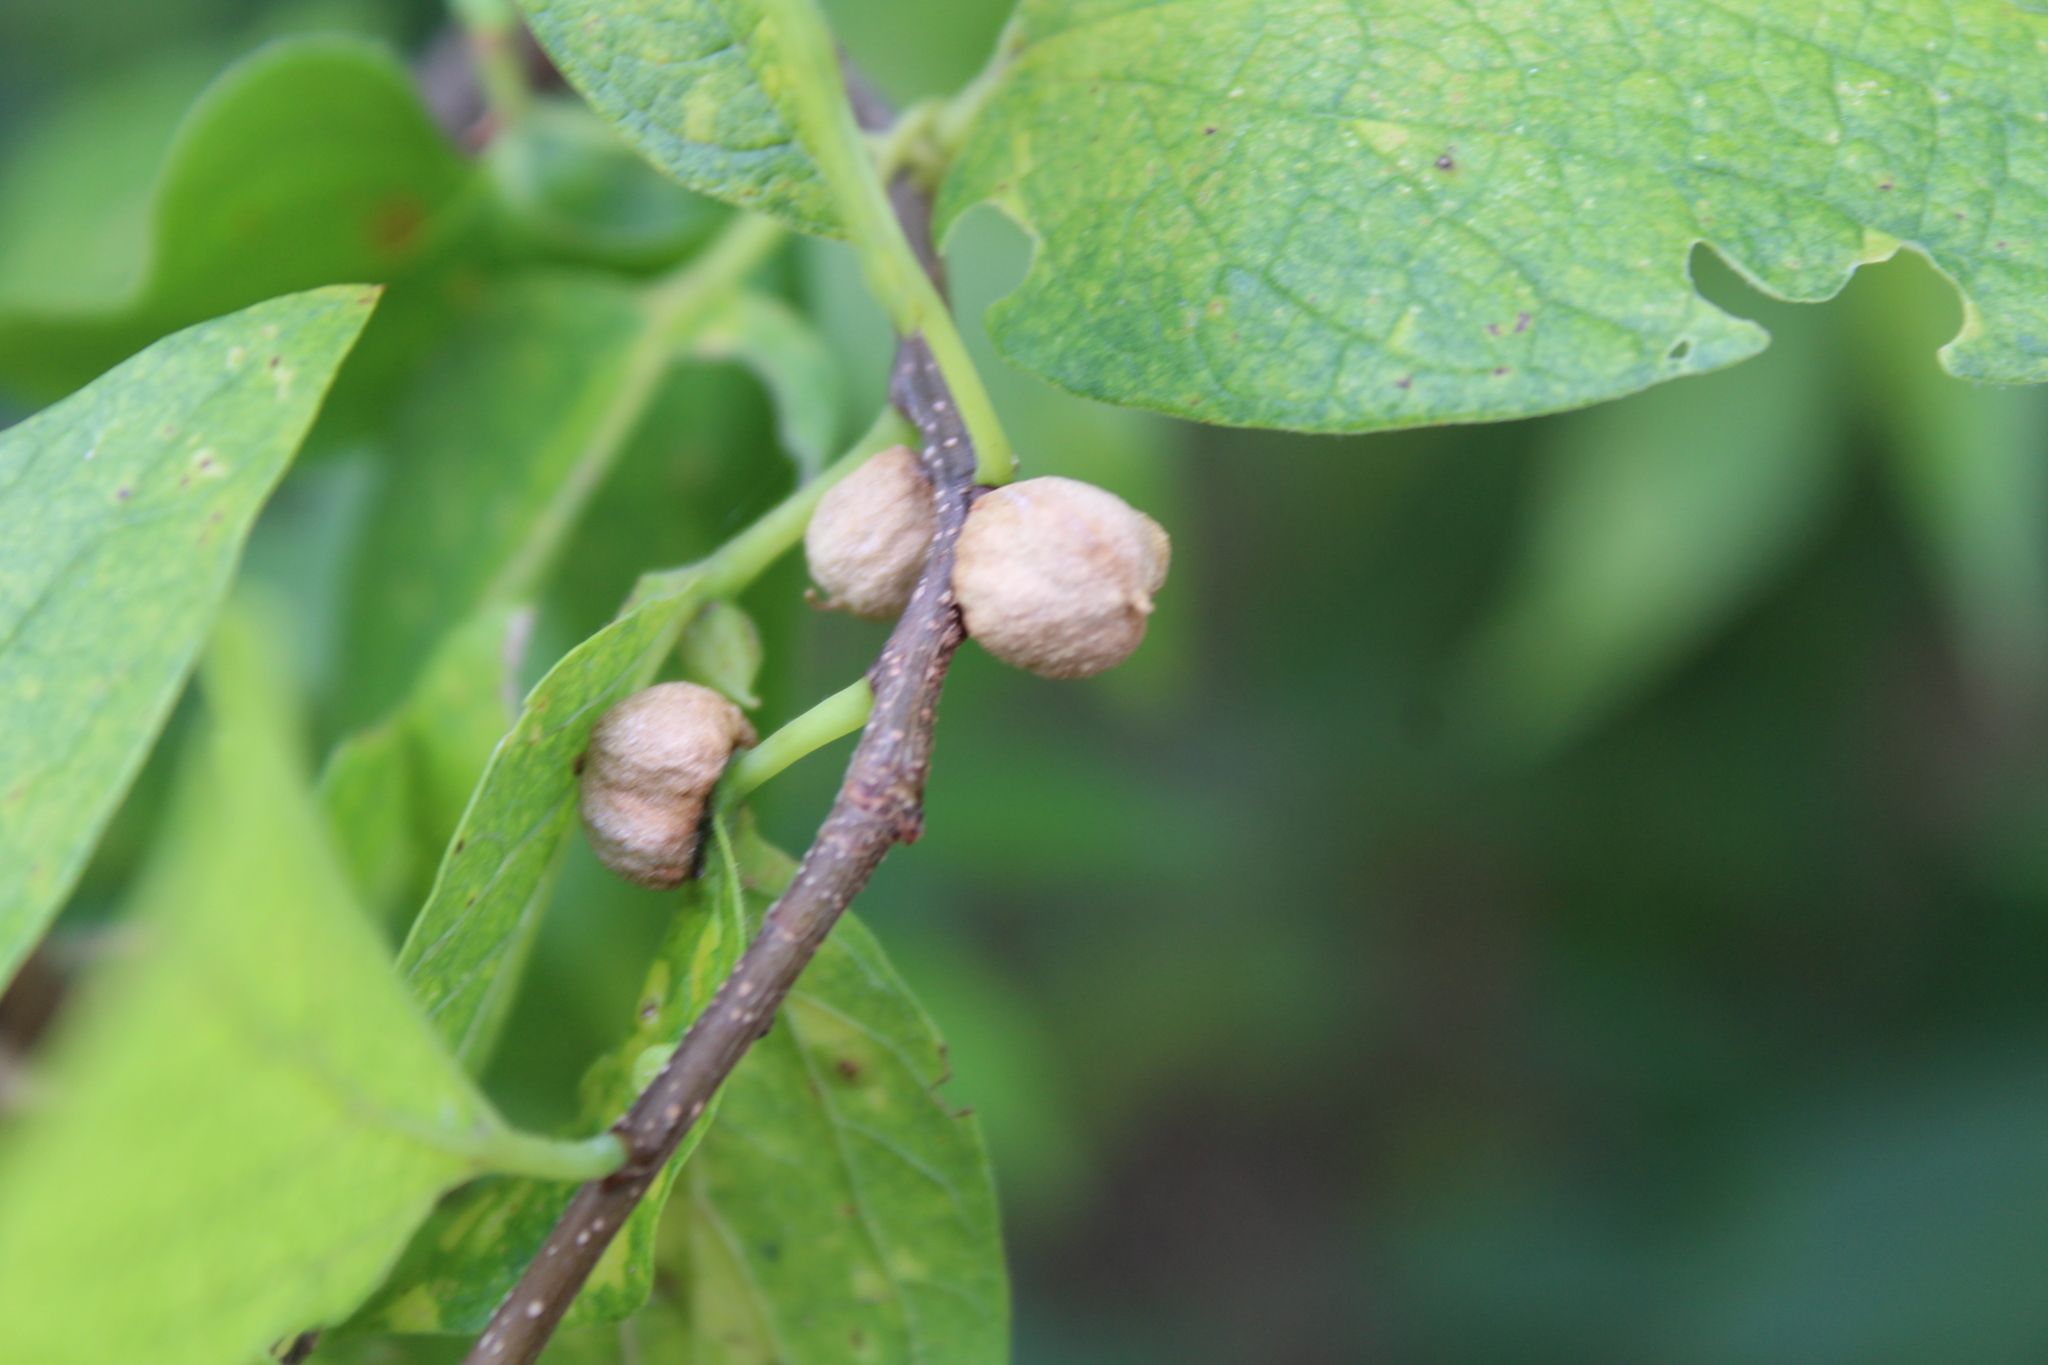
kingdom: Animalia
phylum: Arthropoda
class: Insecta
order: Hemiptera
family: Aphalaridae
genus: Pachypsylla
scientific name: Pachypsylla venusta
